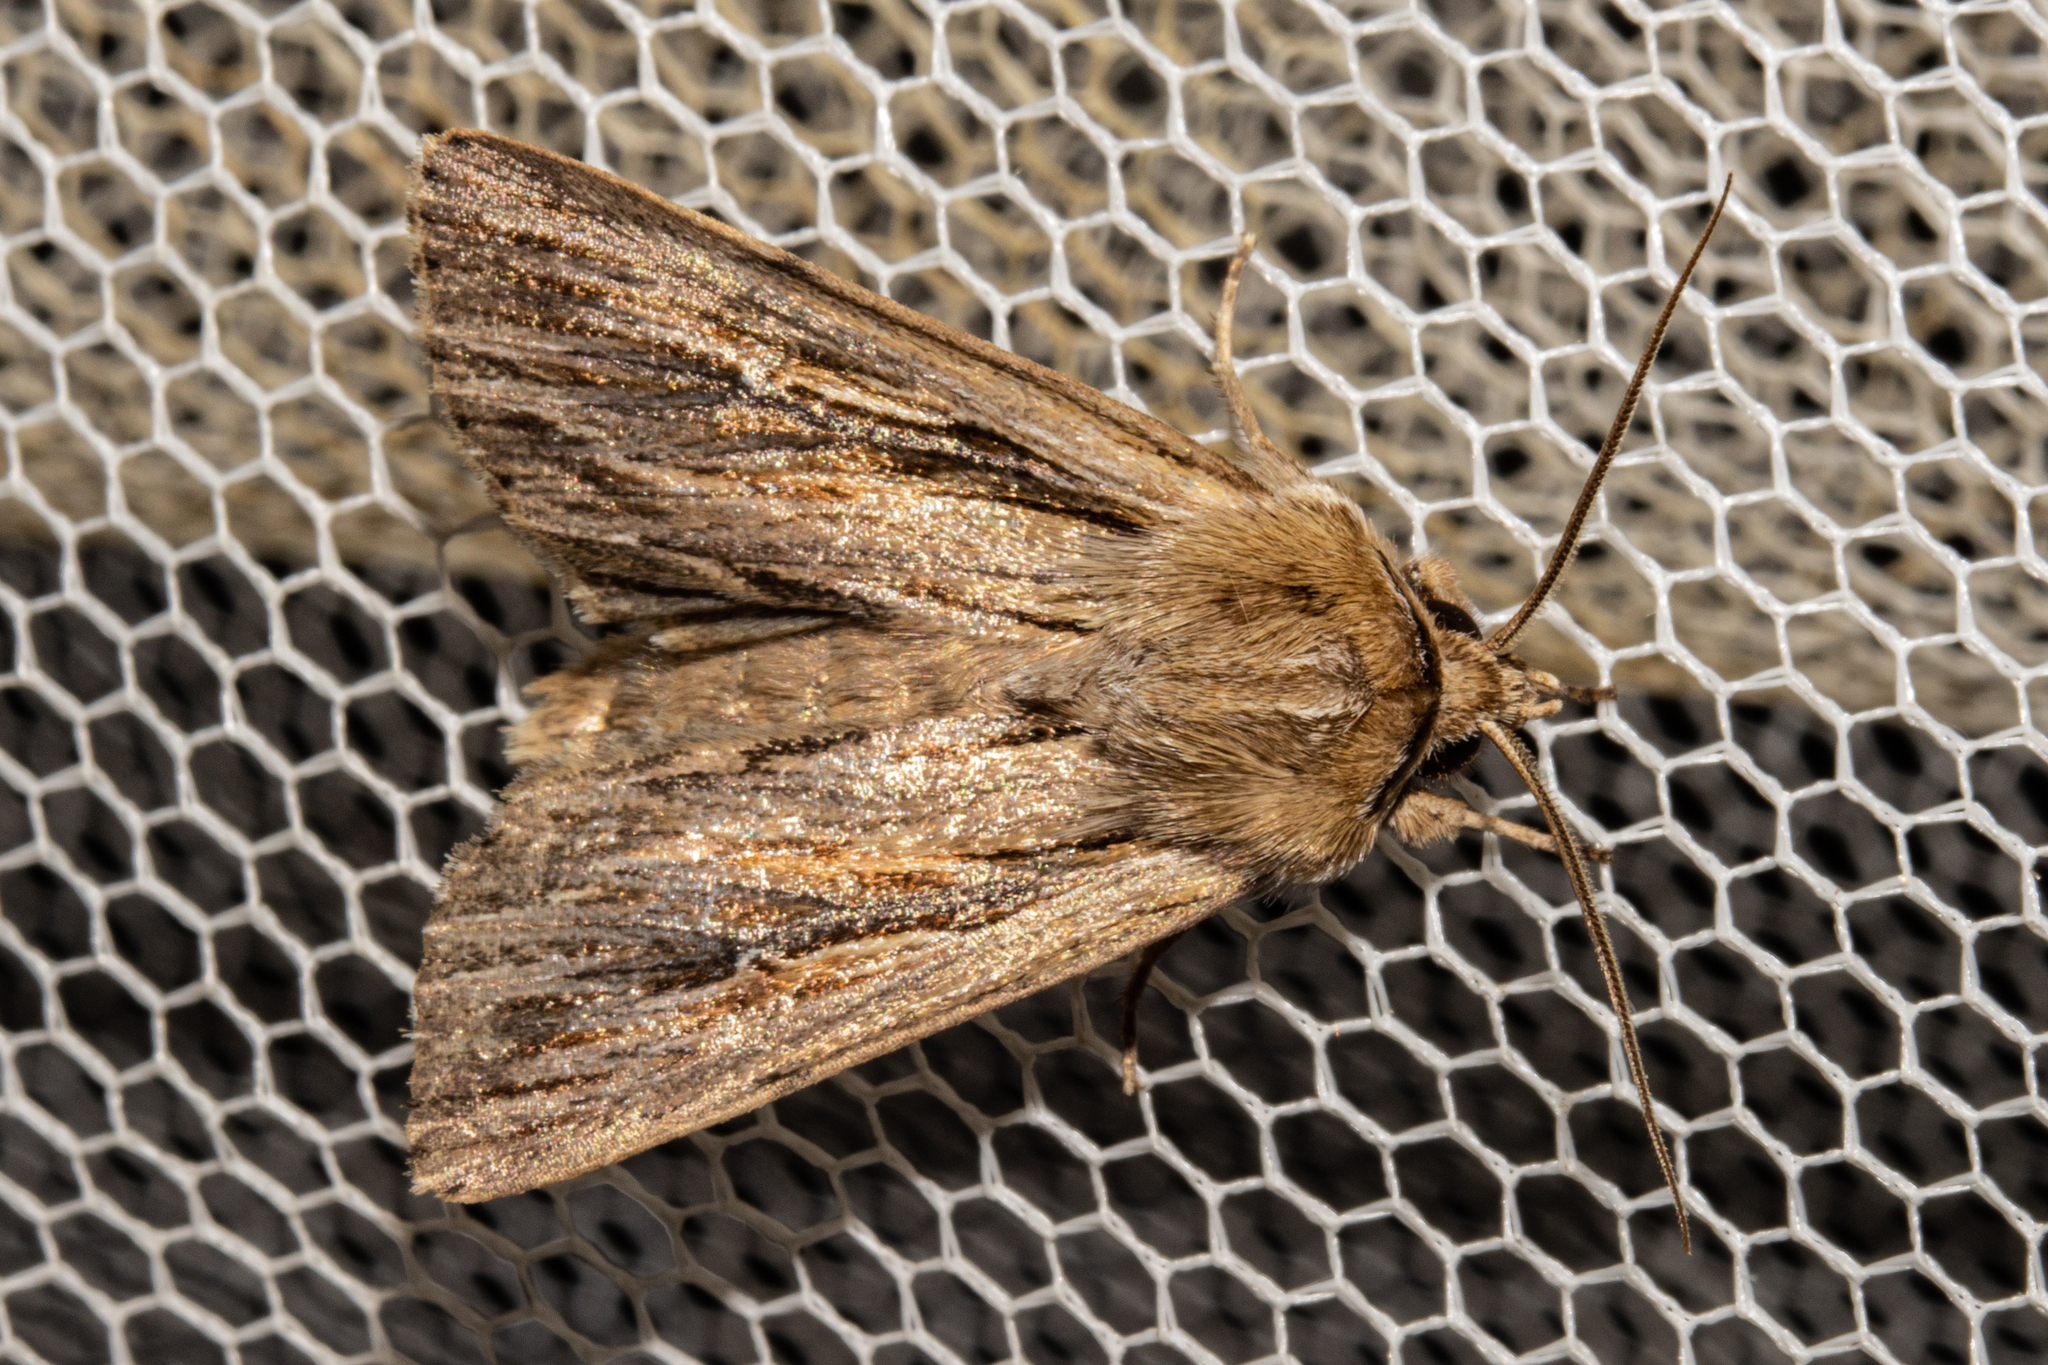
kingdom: Animalia
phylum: Arthropoda
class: Insecta
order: Lepidoptera
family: Noctuidae
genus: Persectania
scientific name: Persectania aversa
